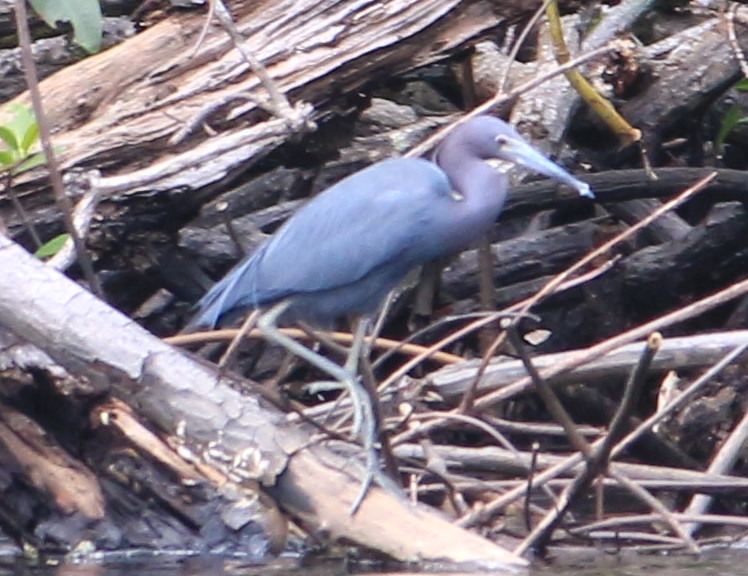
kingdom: Animalia
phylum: Chordata
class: Aves
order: Pelecaniformes
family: Ardeidae
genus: Egretta
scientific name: Egretta caerulea
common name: Little blue heron
